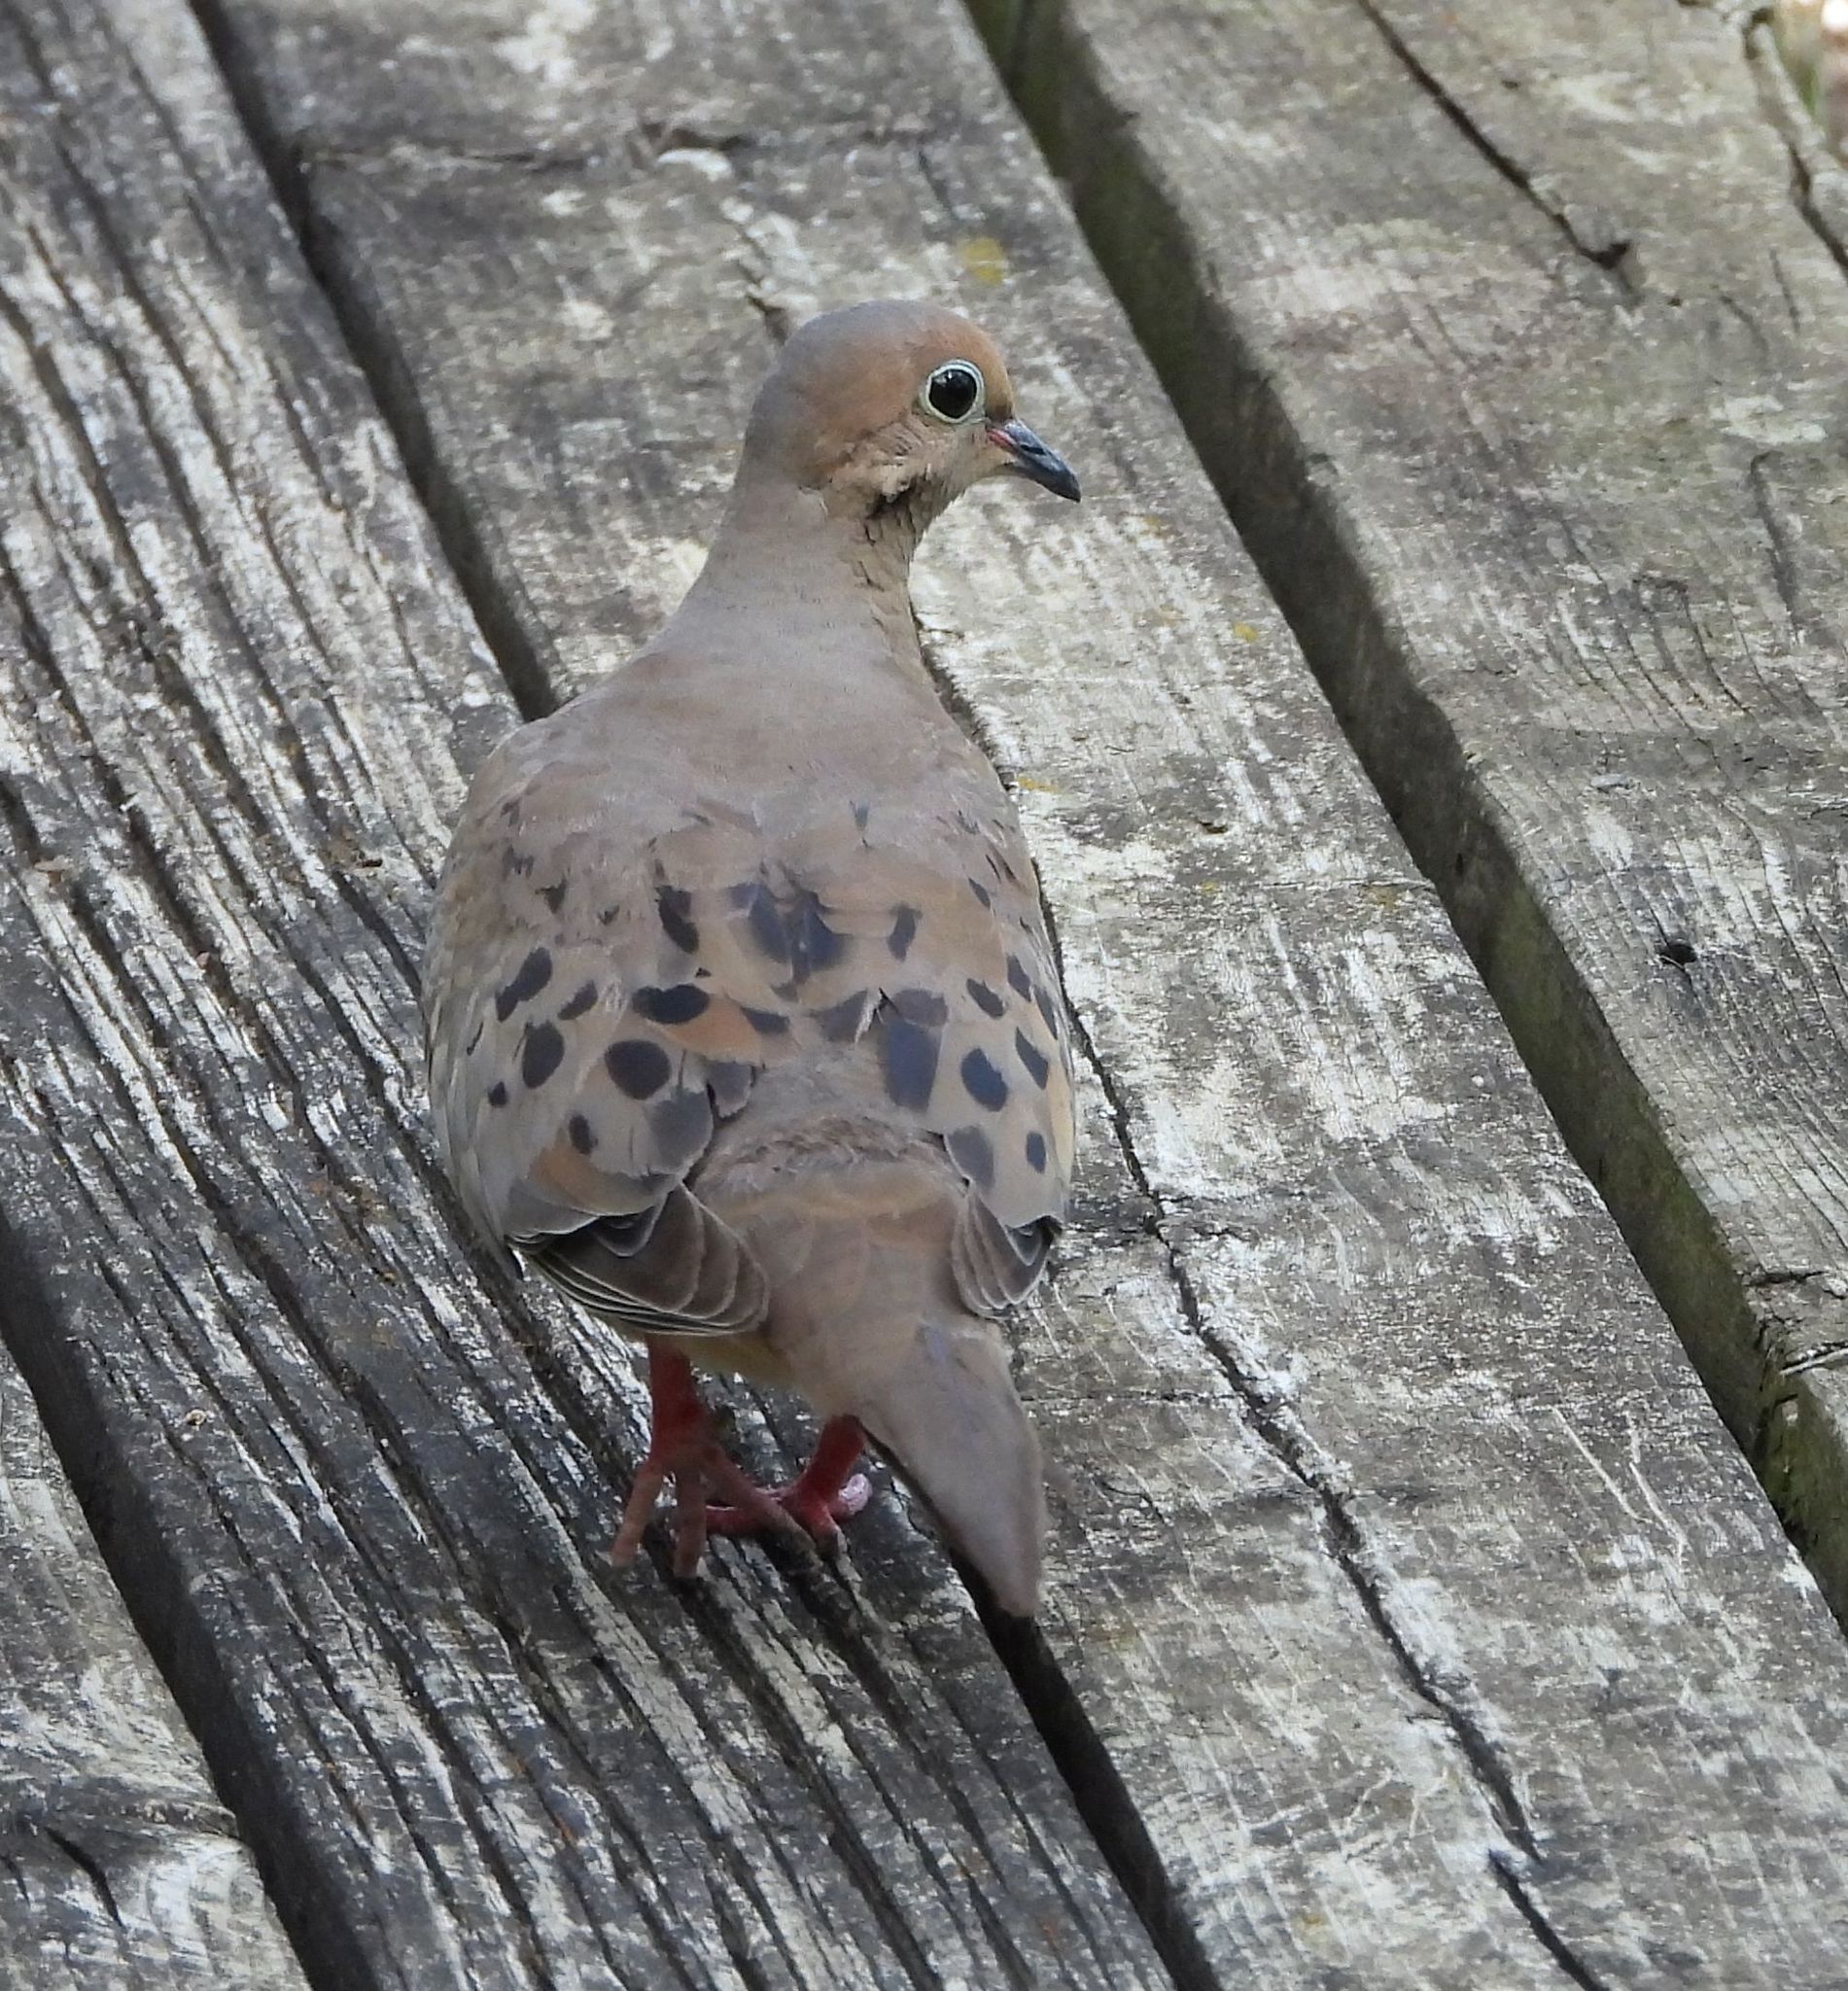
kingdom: Animalia
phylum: Chordata
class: Aves
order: Columbiformes
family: Columbidae
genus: Zenaida
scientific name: Zenaida macroura
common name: Mourning dove
